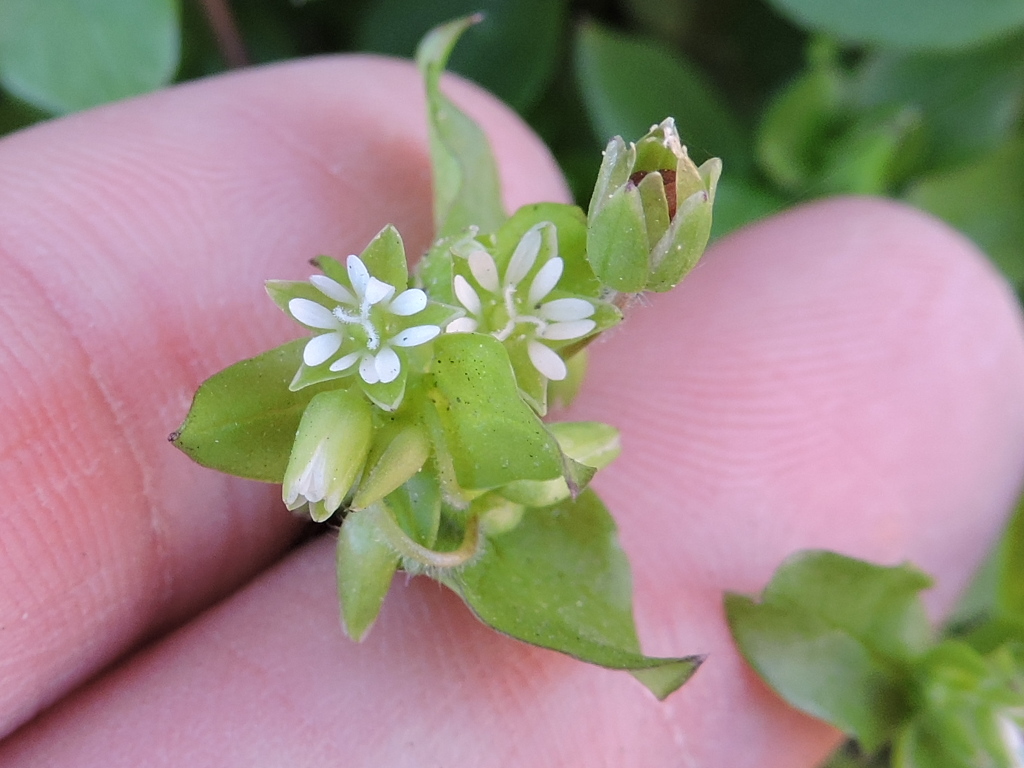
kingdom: Plantae
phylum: Tracheophyta
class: Magnoliopsida
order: Caryophyllales
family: Caryophyllaceae
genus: Stellaria
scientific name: Stellaria media
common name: Common chickweed
